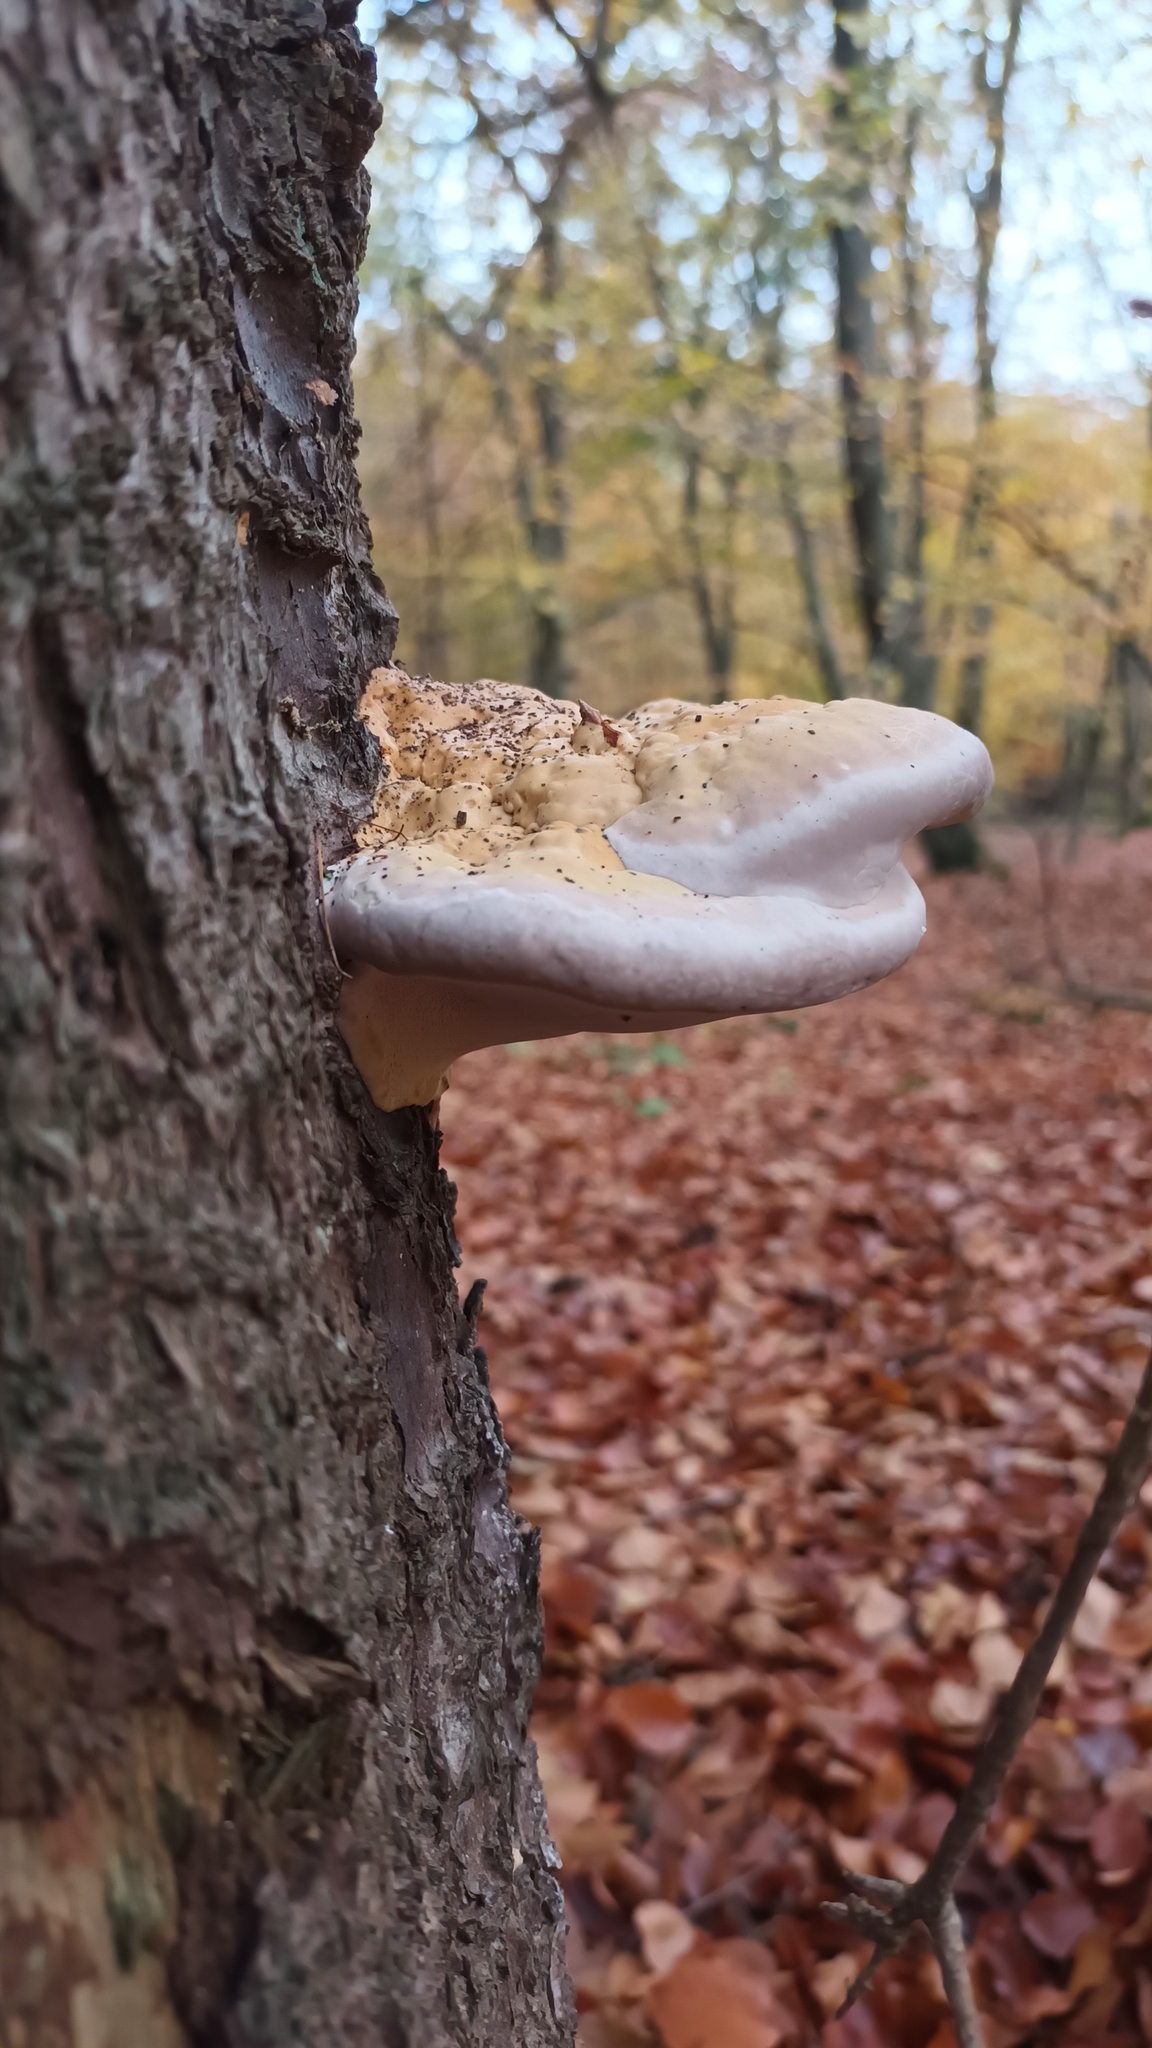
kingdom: Fungi
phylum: Basidiomycota
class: Agaricomycetes
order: Polyporales
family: Fomitopsidaceae
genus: Fomitopsis
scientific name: Fomitopsis pinicola
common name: Red-belted bracket
